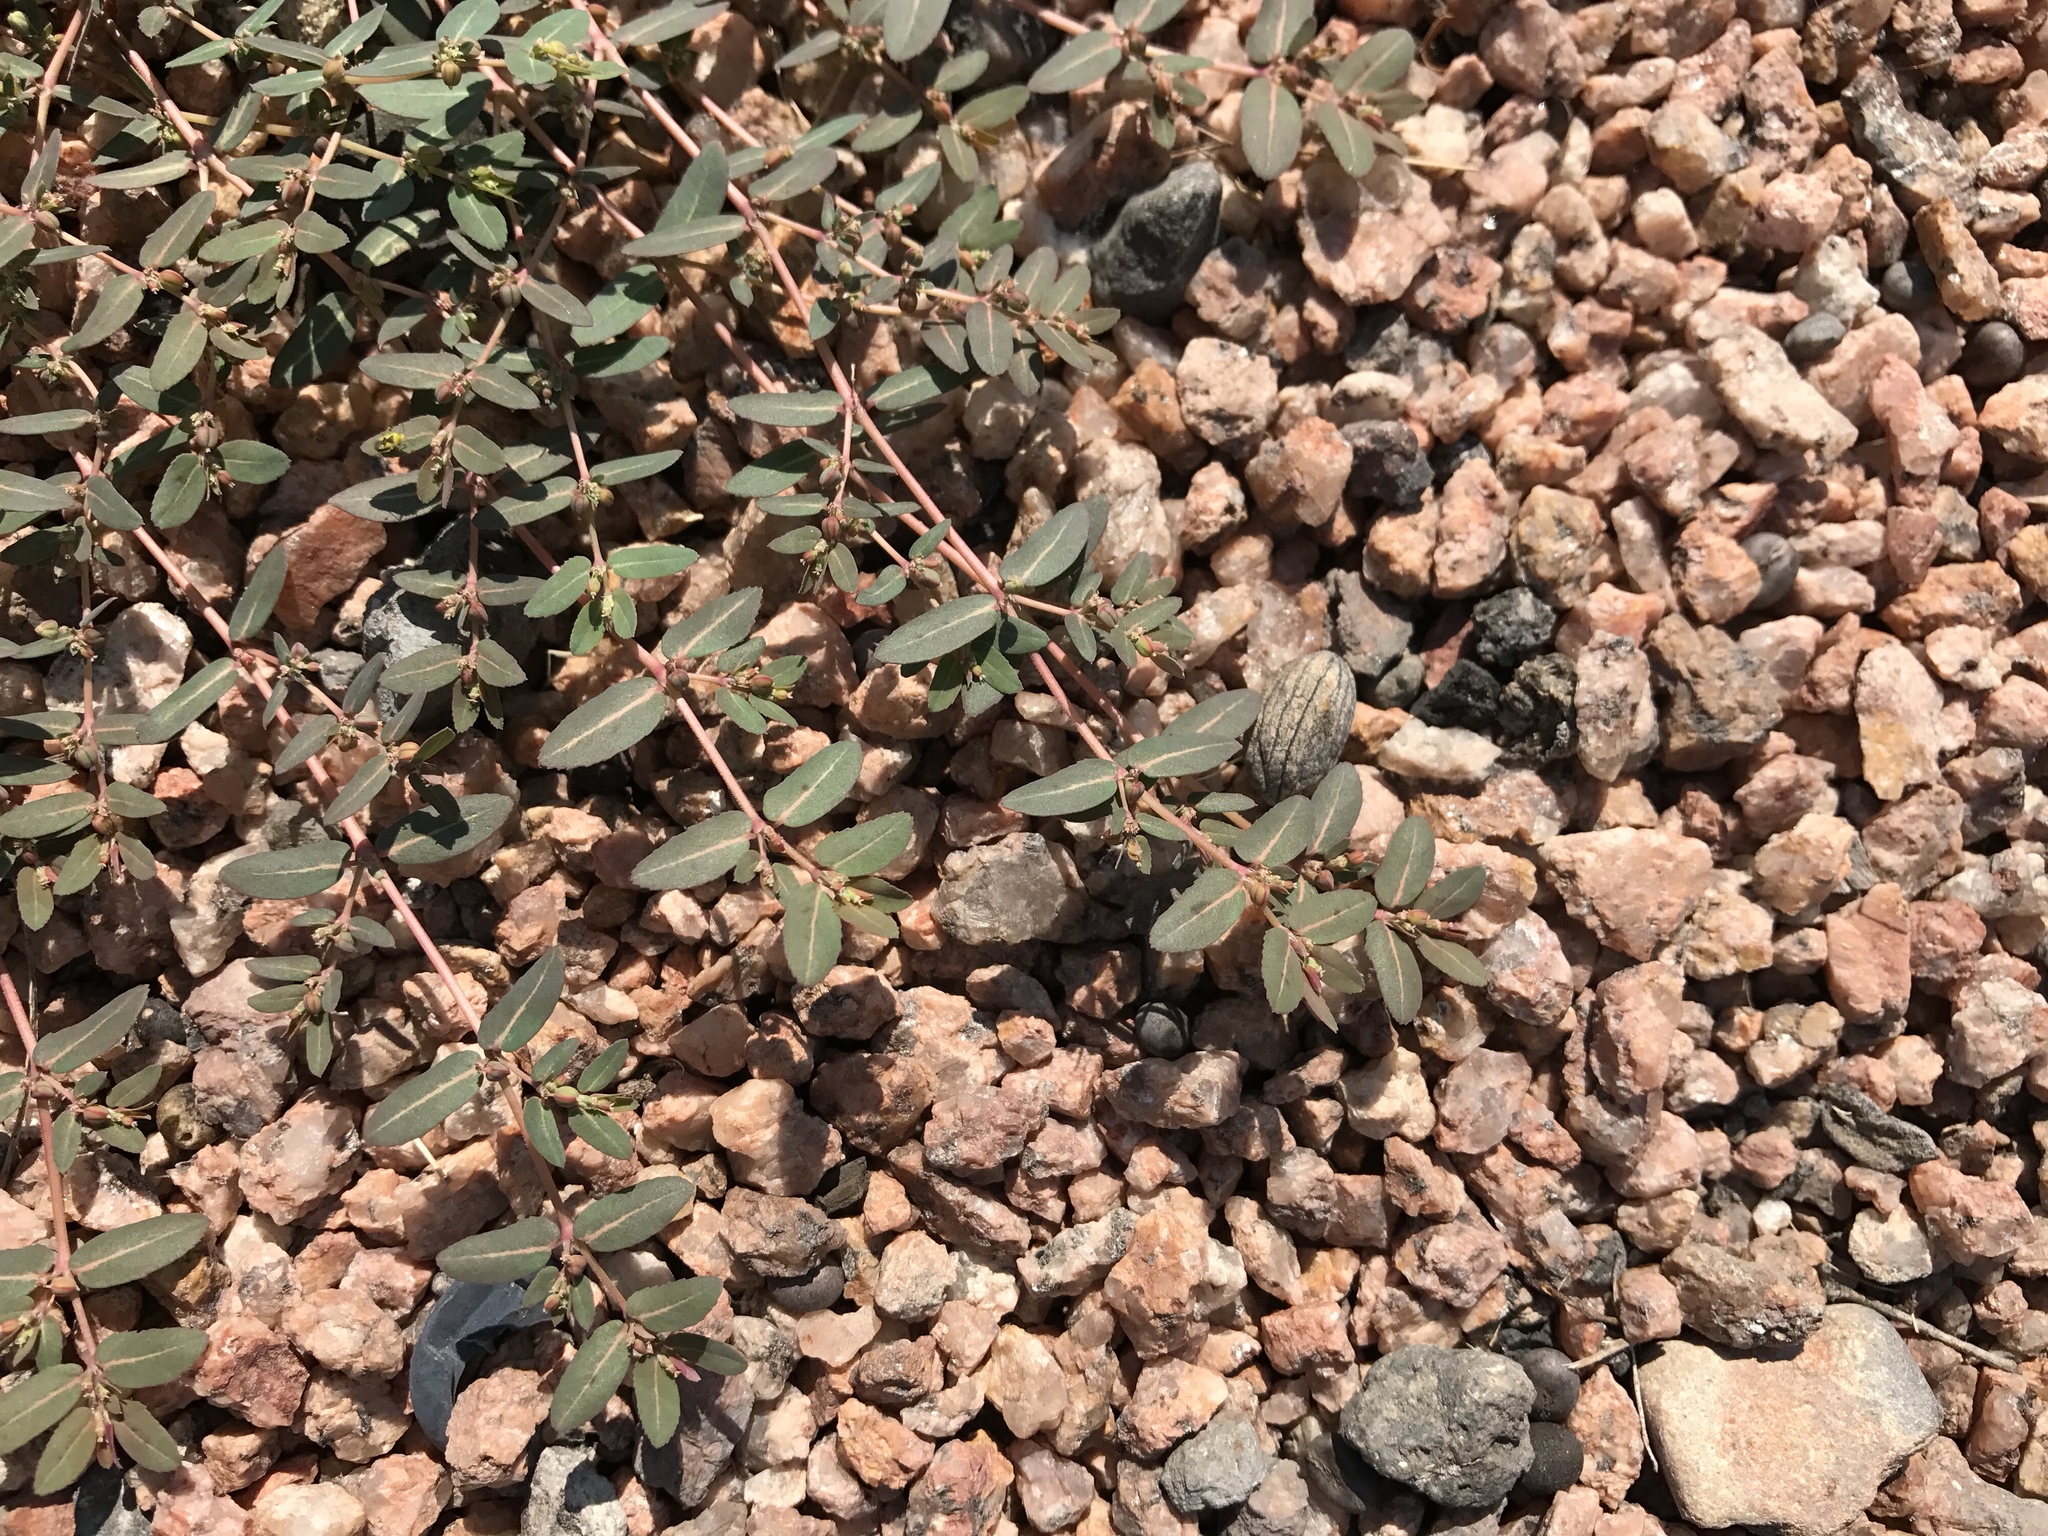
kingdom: Plantae
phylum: Tracheophyta
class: Magnoliopsida
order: Malpighiales
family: Euphorbiaceae
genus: Euphorbia
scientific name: Euphorbia abramsiana
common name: Abram's spurge
